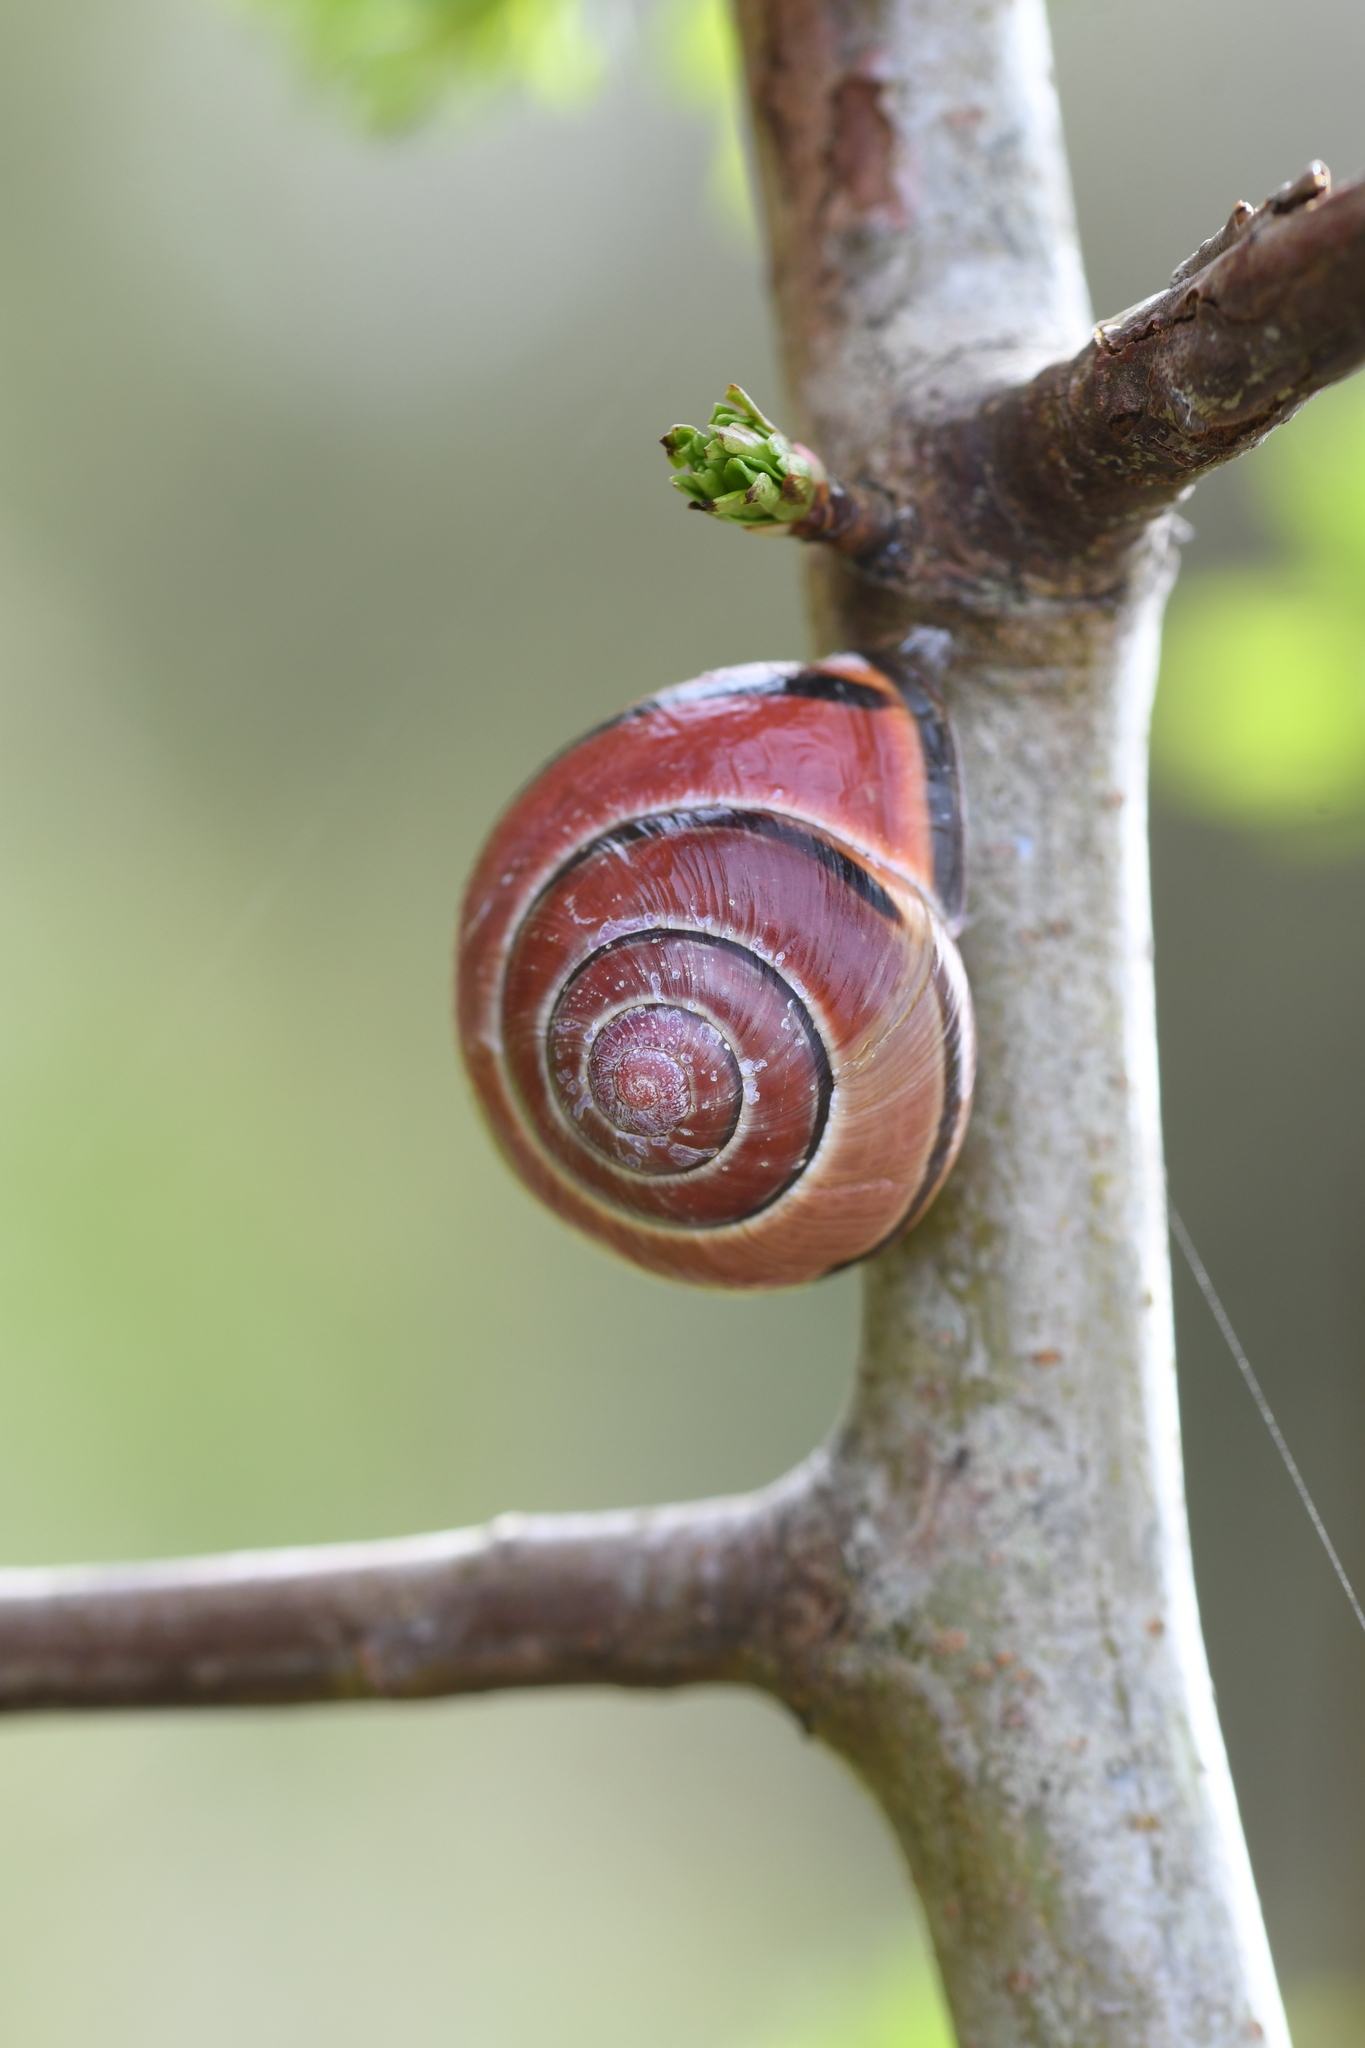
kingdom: Animalia
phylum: Mollusca
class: Gastropoda
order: Stylommatophora
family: Helicidae
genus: Cepaea
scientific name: Cepaea nemoralis
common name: Grovesnail
